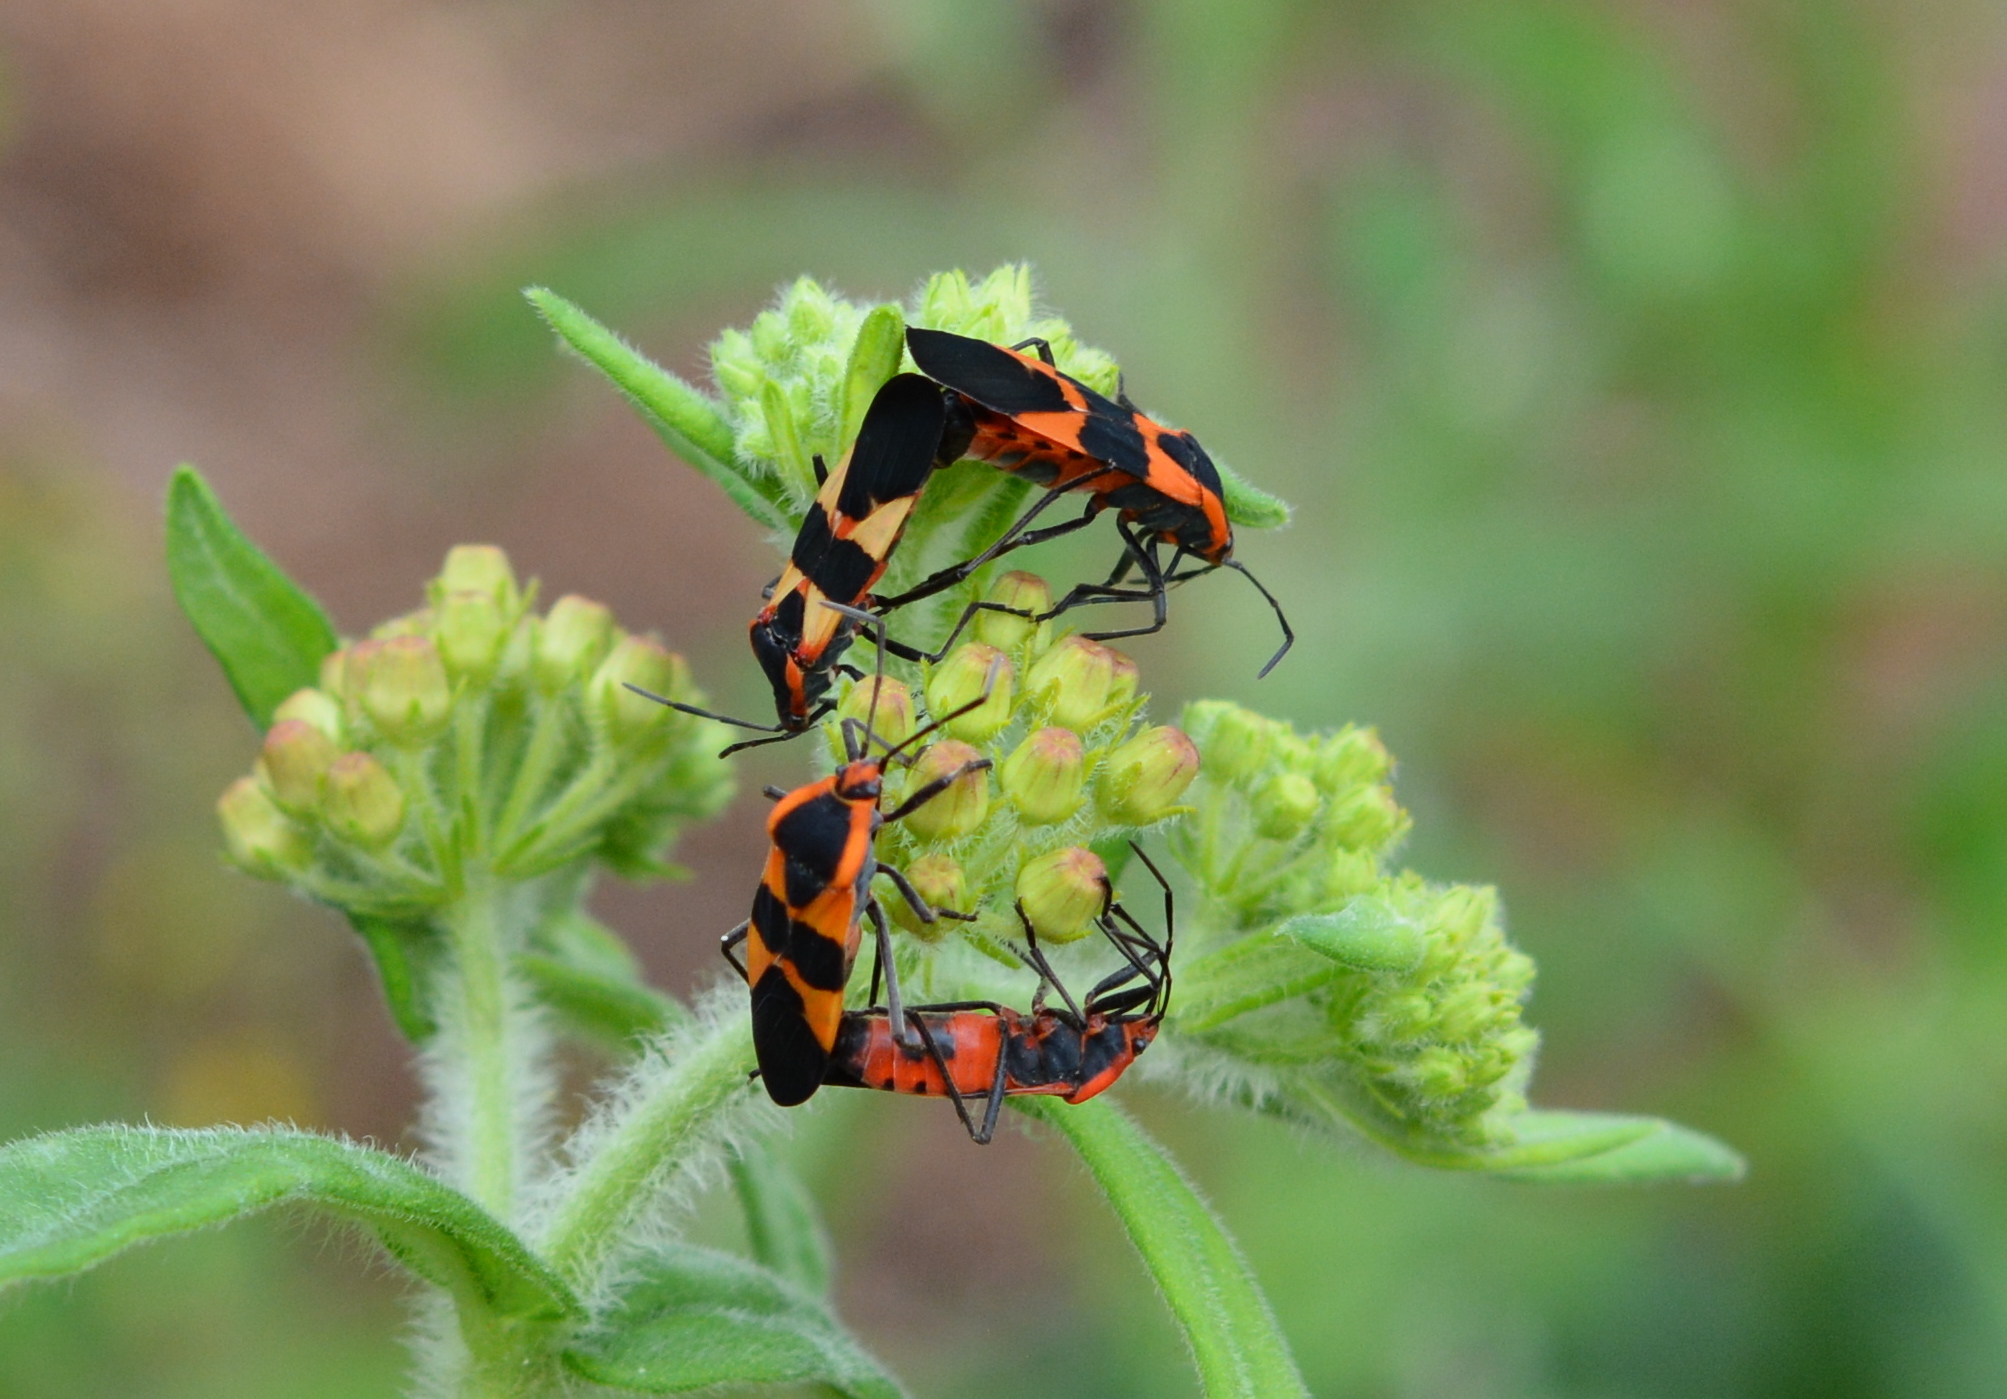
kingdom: Animalia
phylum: Arthropoda
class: Insecta
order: Hemiptera
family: Lygaeidae
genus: Oncopeltus
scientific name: Oncopeltus fasciatus
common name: Large milkweed bug
